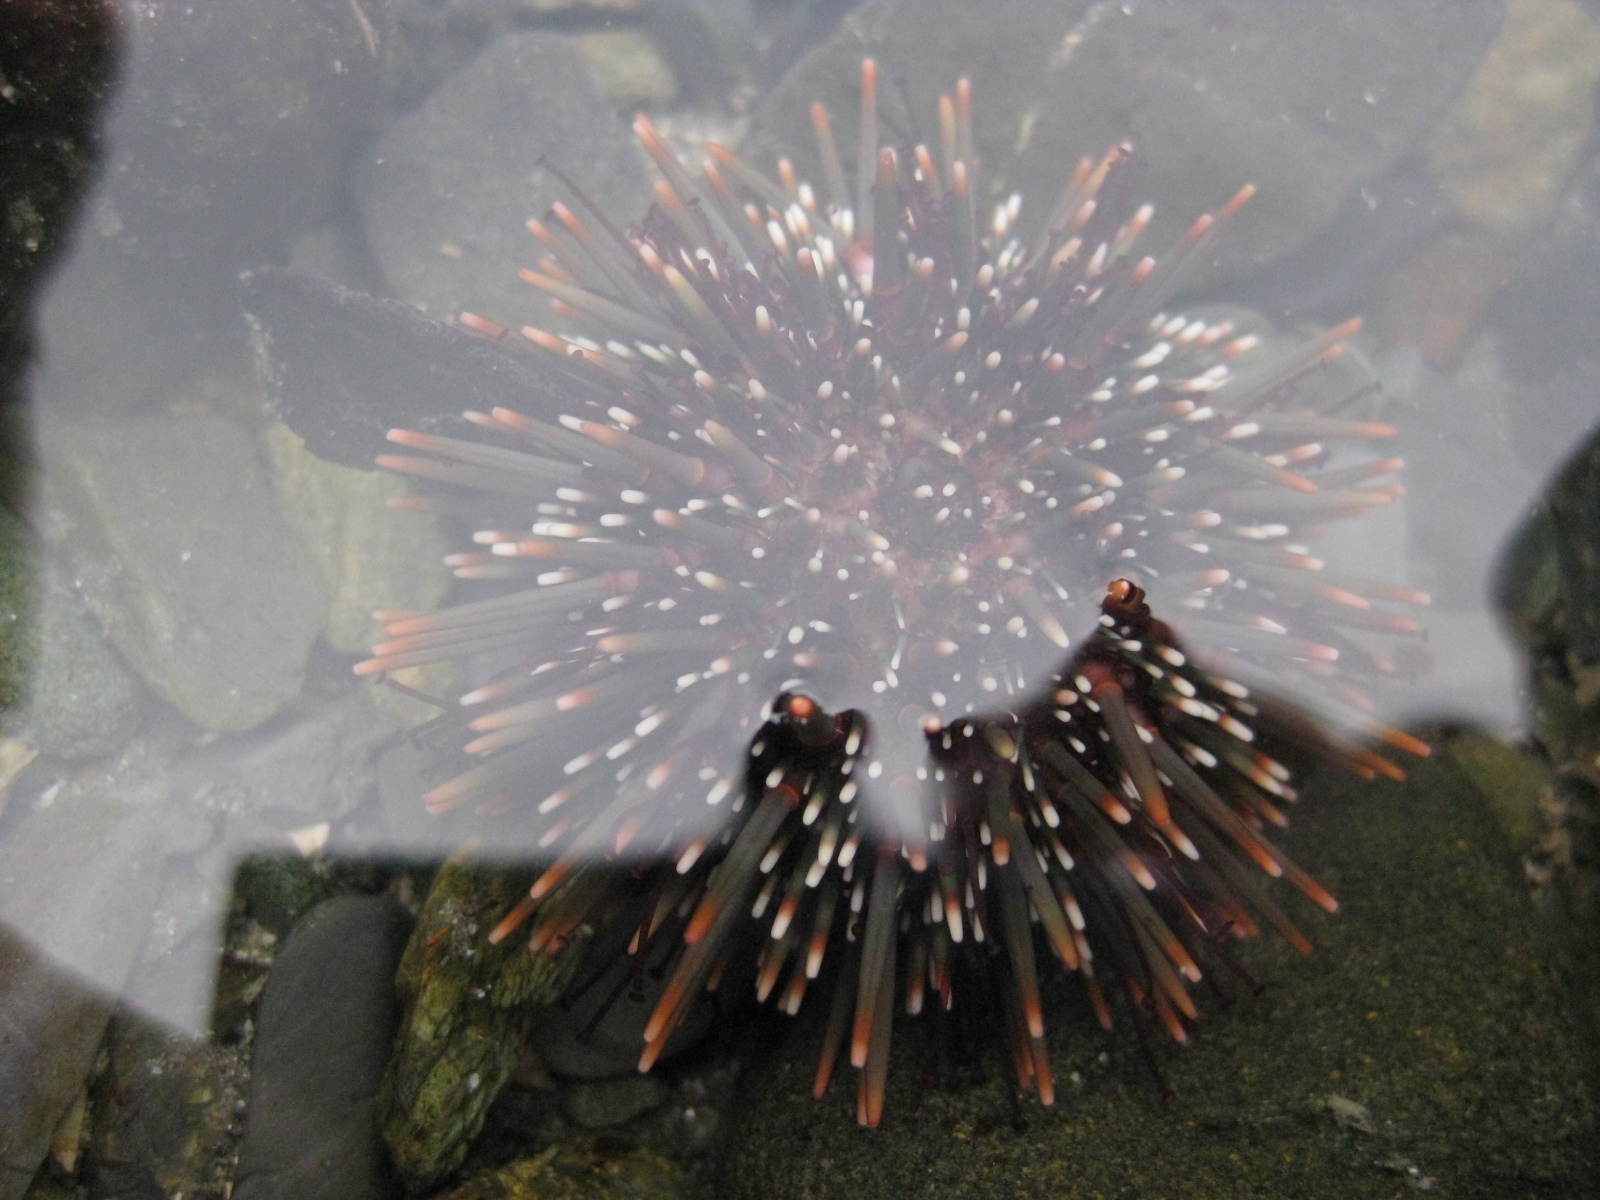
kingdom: Animalia
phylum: Echinodermata
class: Echinoidea
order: Camarodonta
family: Echinometridae
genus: Evechinus
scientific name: Evechinus chloroticus
